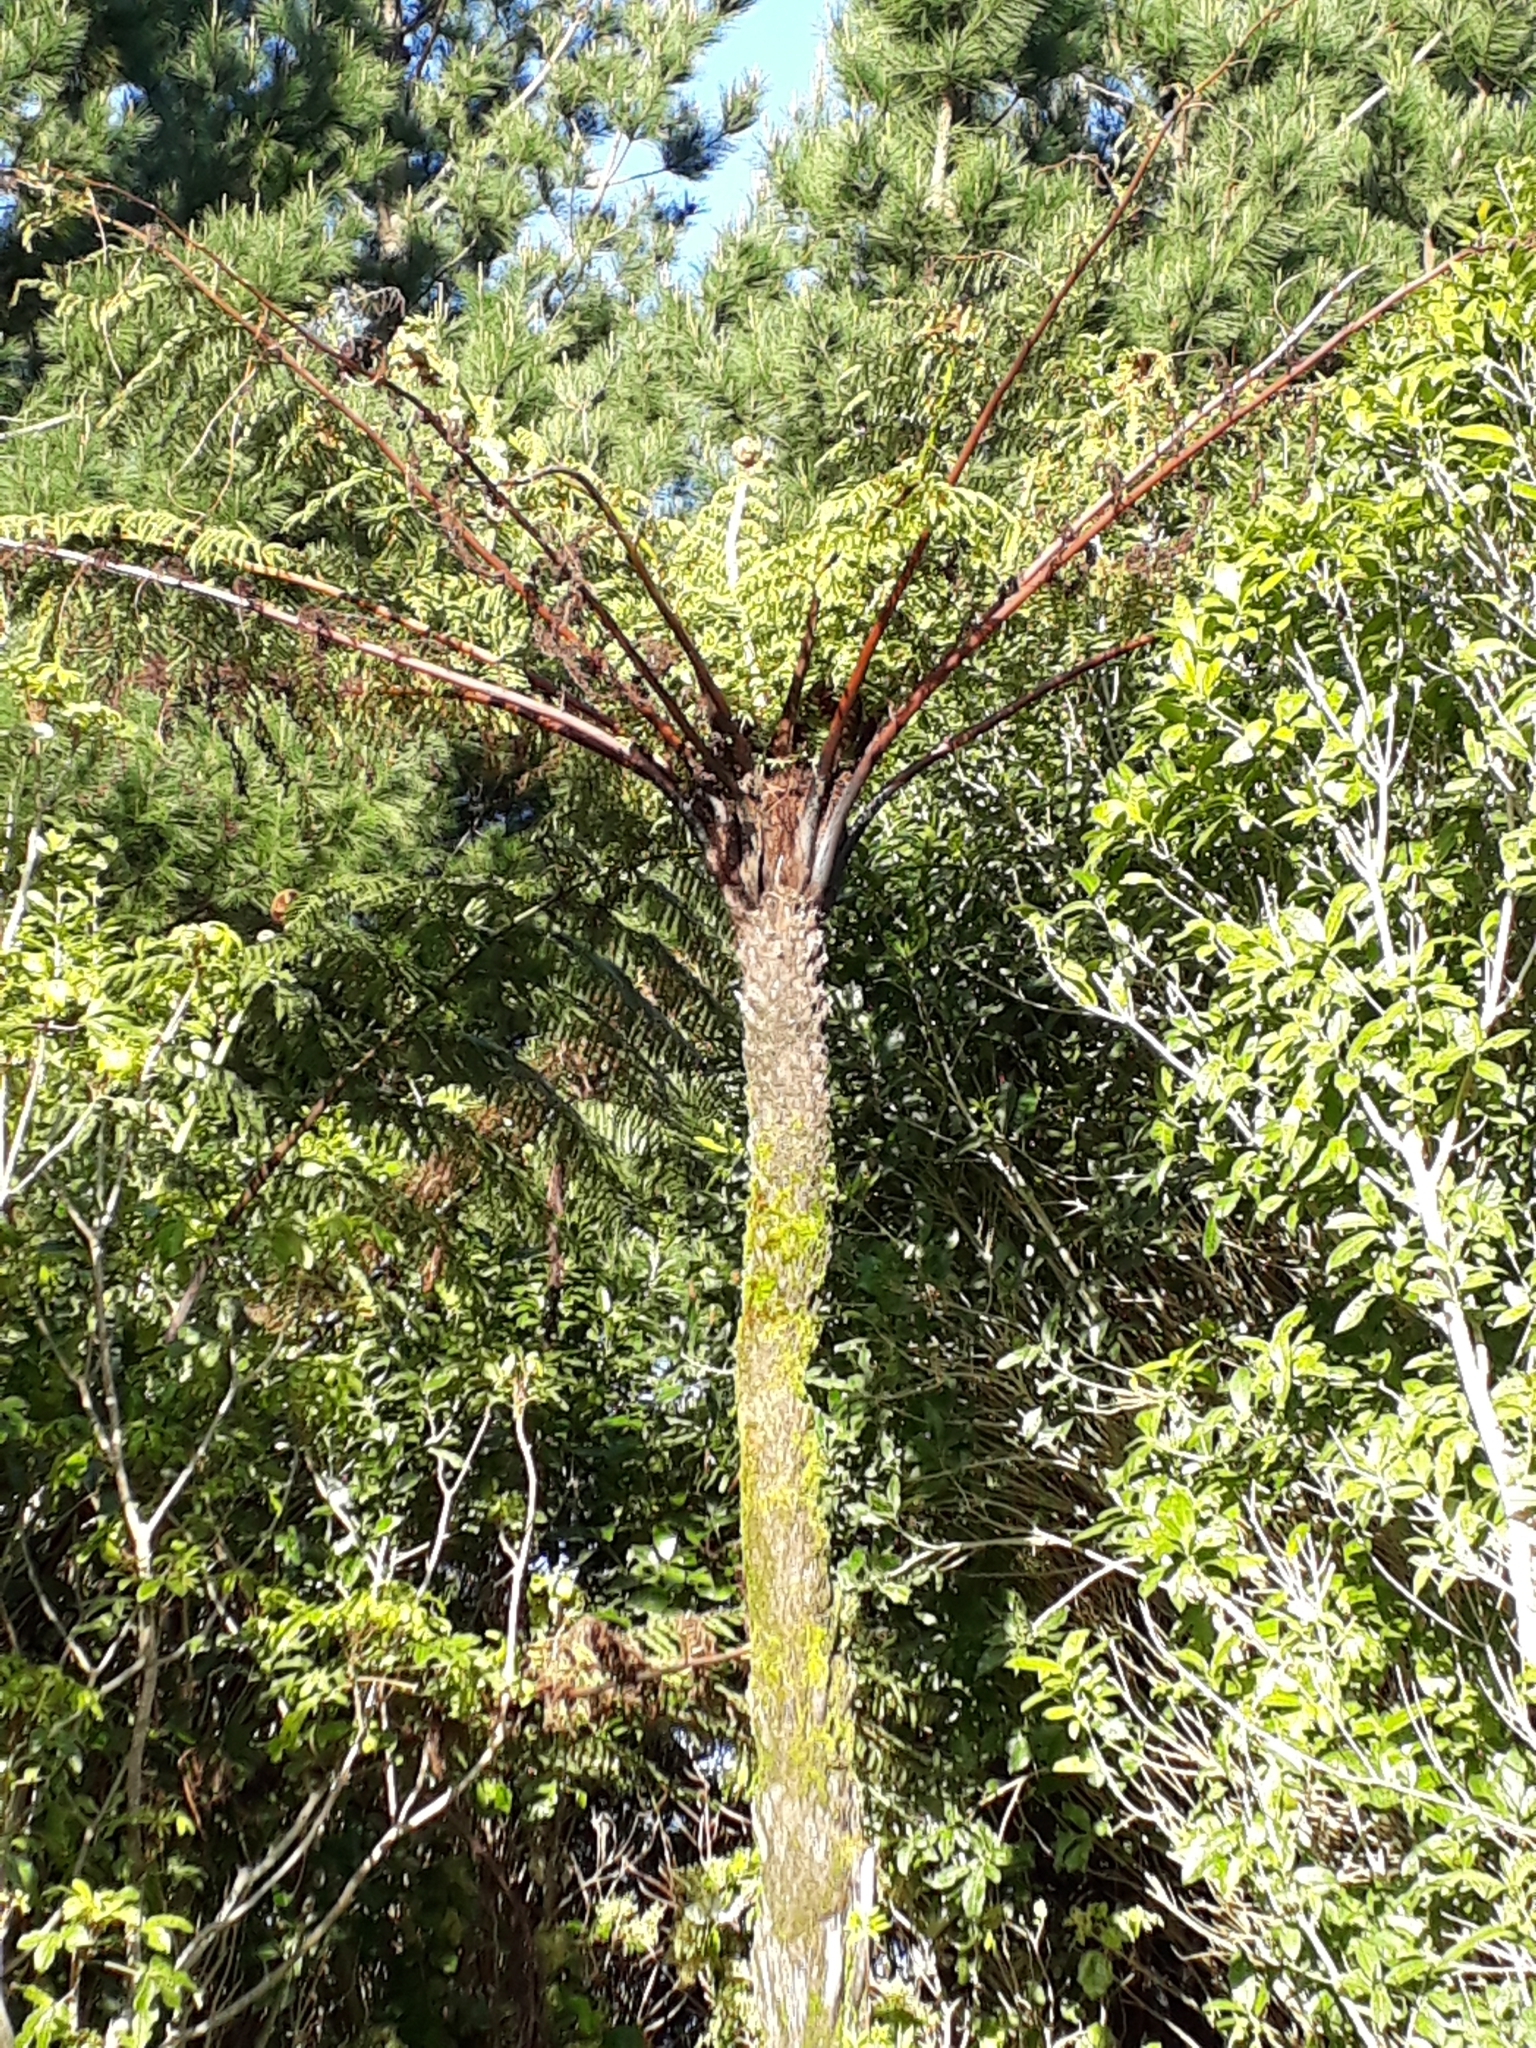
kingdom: Plantae
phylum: Tracheophyta
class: Polypodiopsida
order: Cyatheales
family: Cyatheaceae
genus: Cyathea
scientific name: Cyathea cunninghamii
